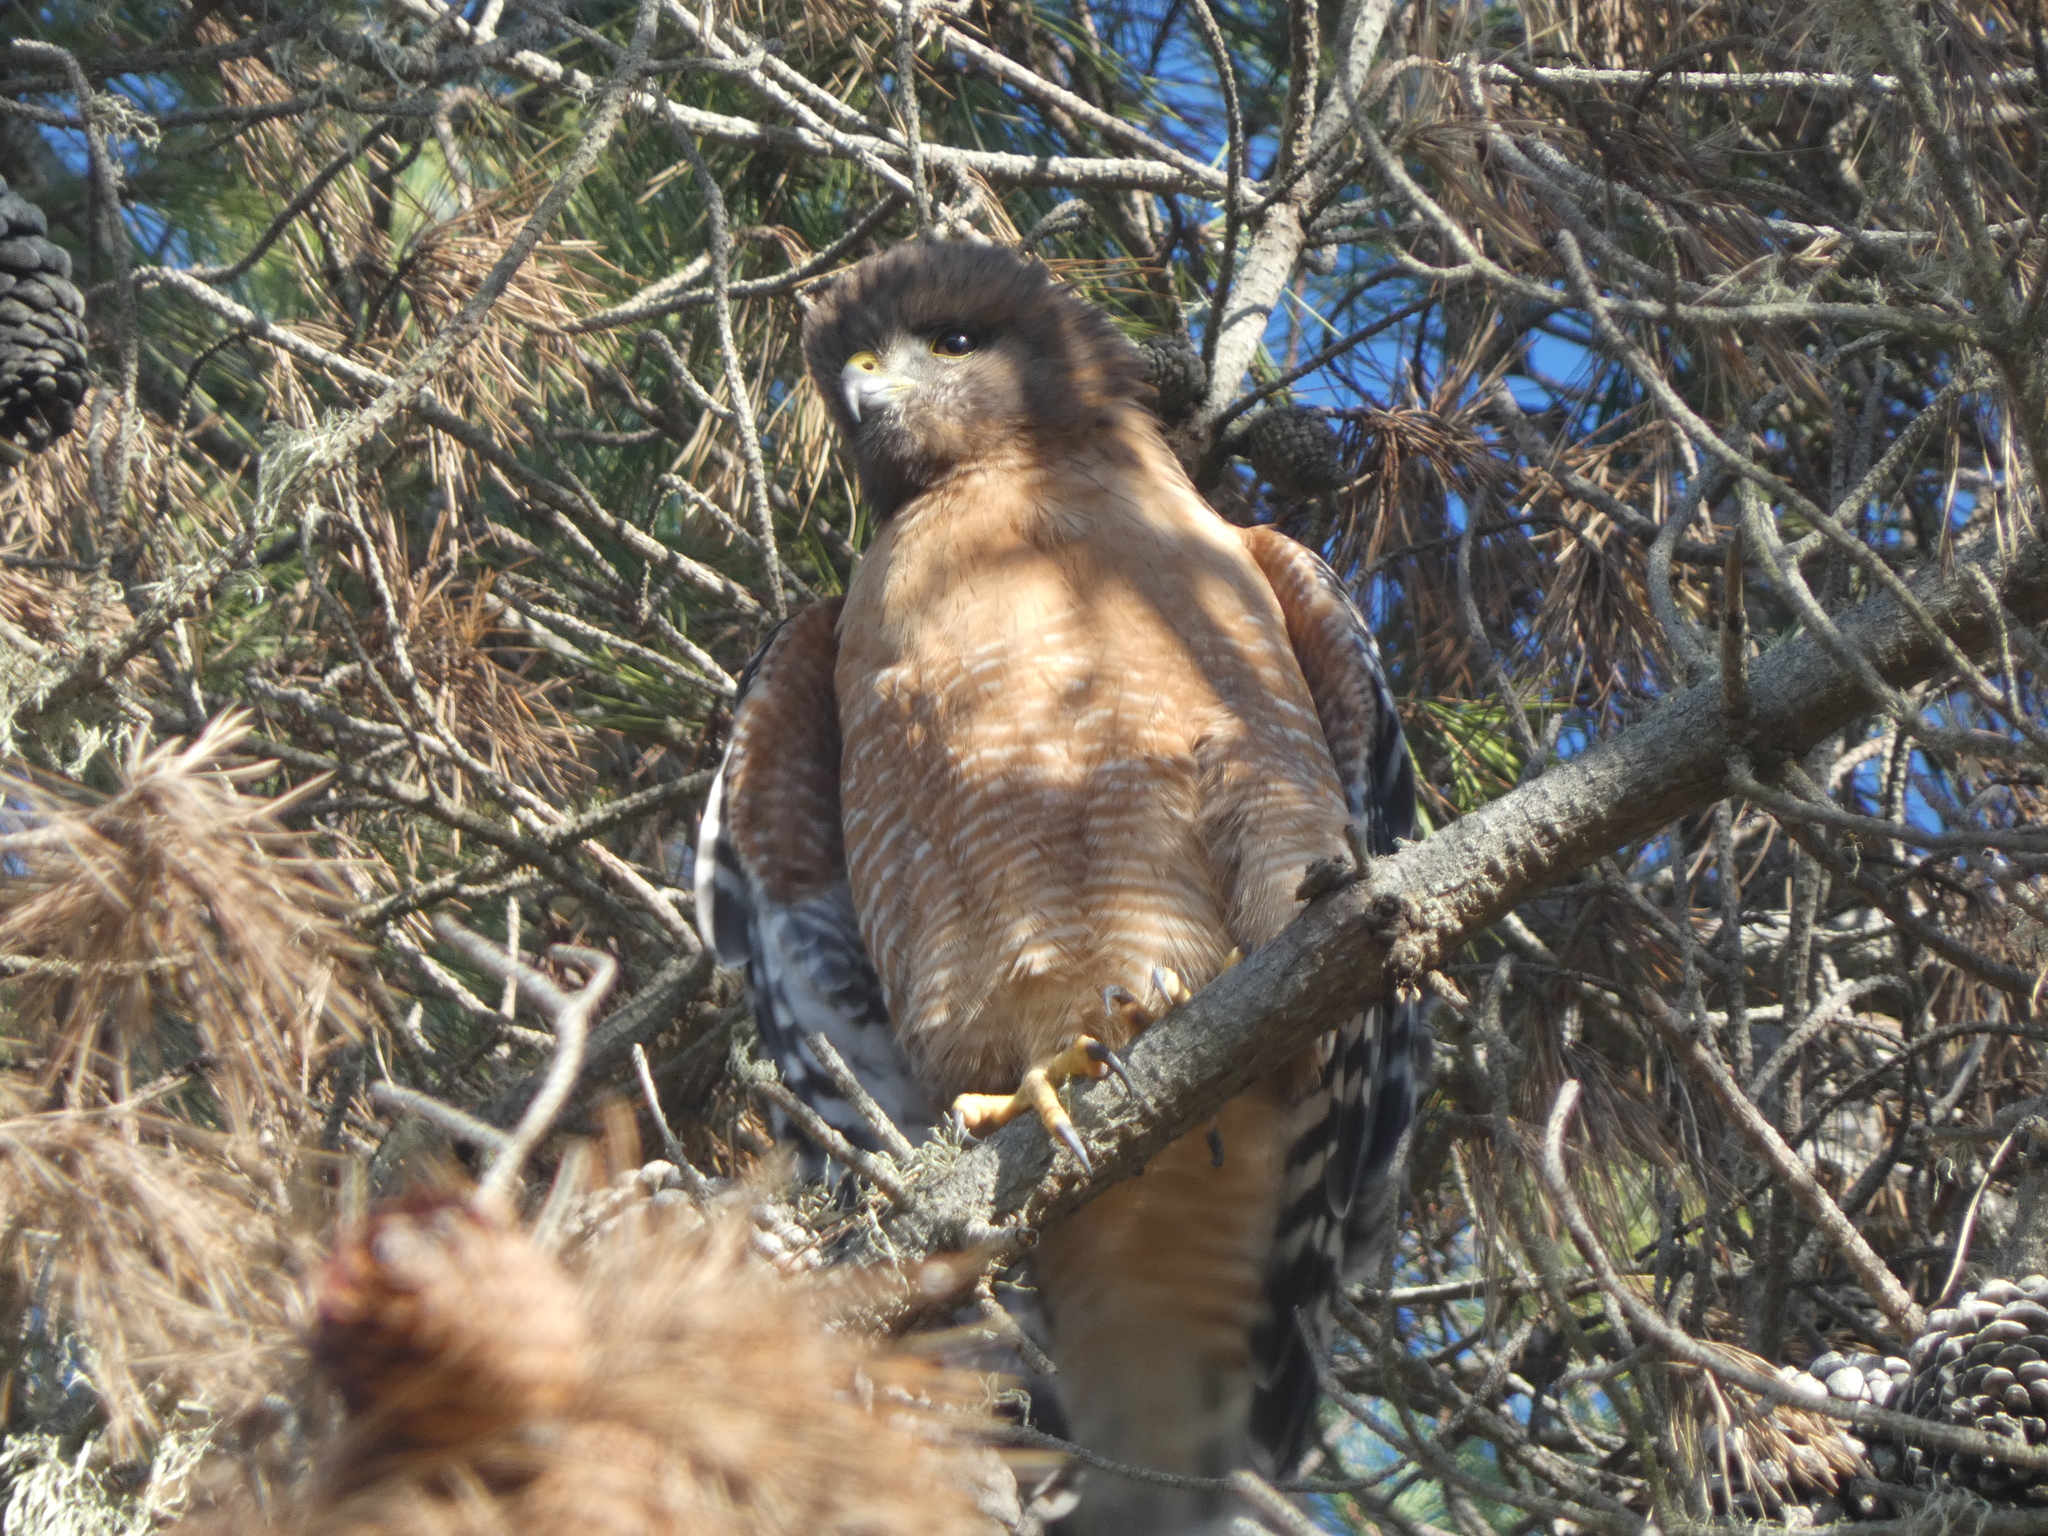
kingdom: Animalia
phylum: Chordata
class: Aves
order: Accipitriformes
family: Accipitridae
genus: Buteo
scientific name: Buteo lineatus
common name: Red-shouldered hawk
